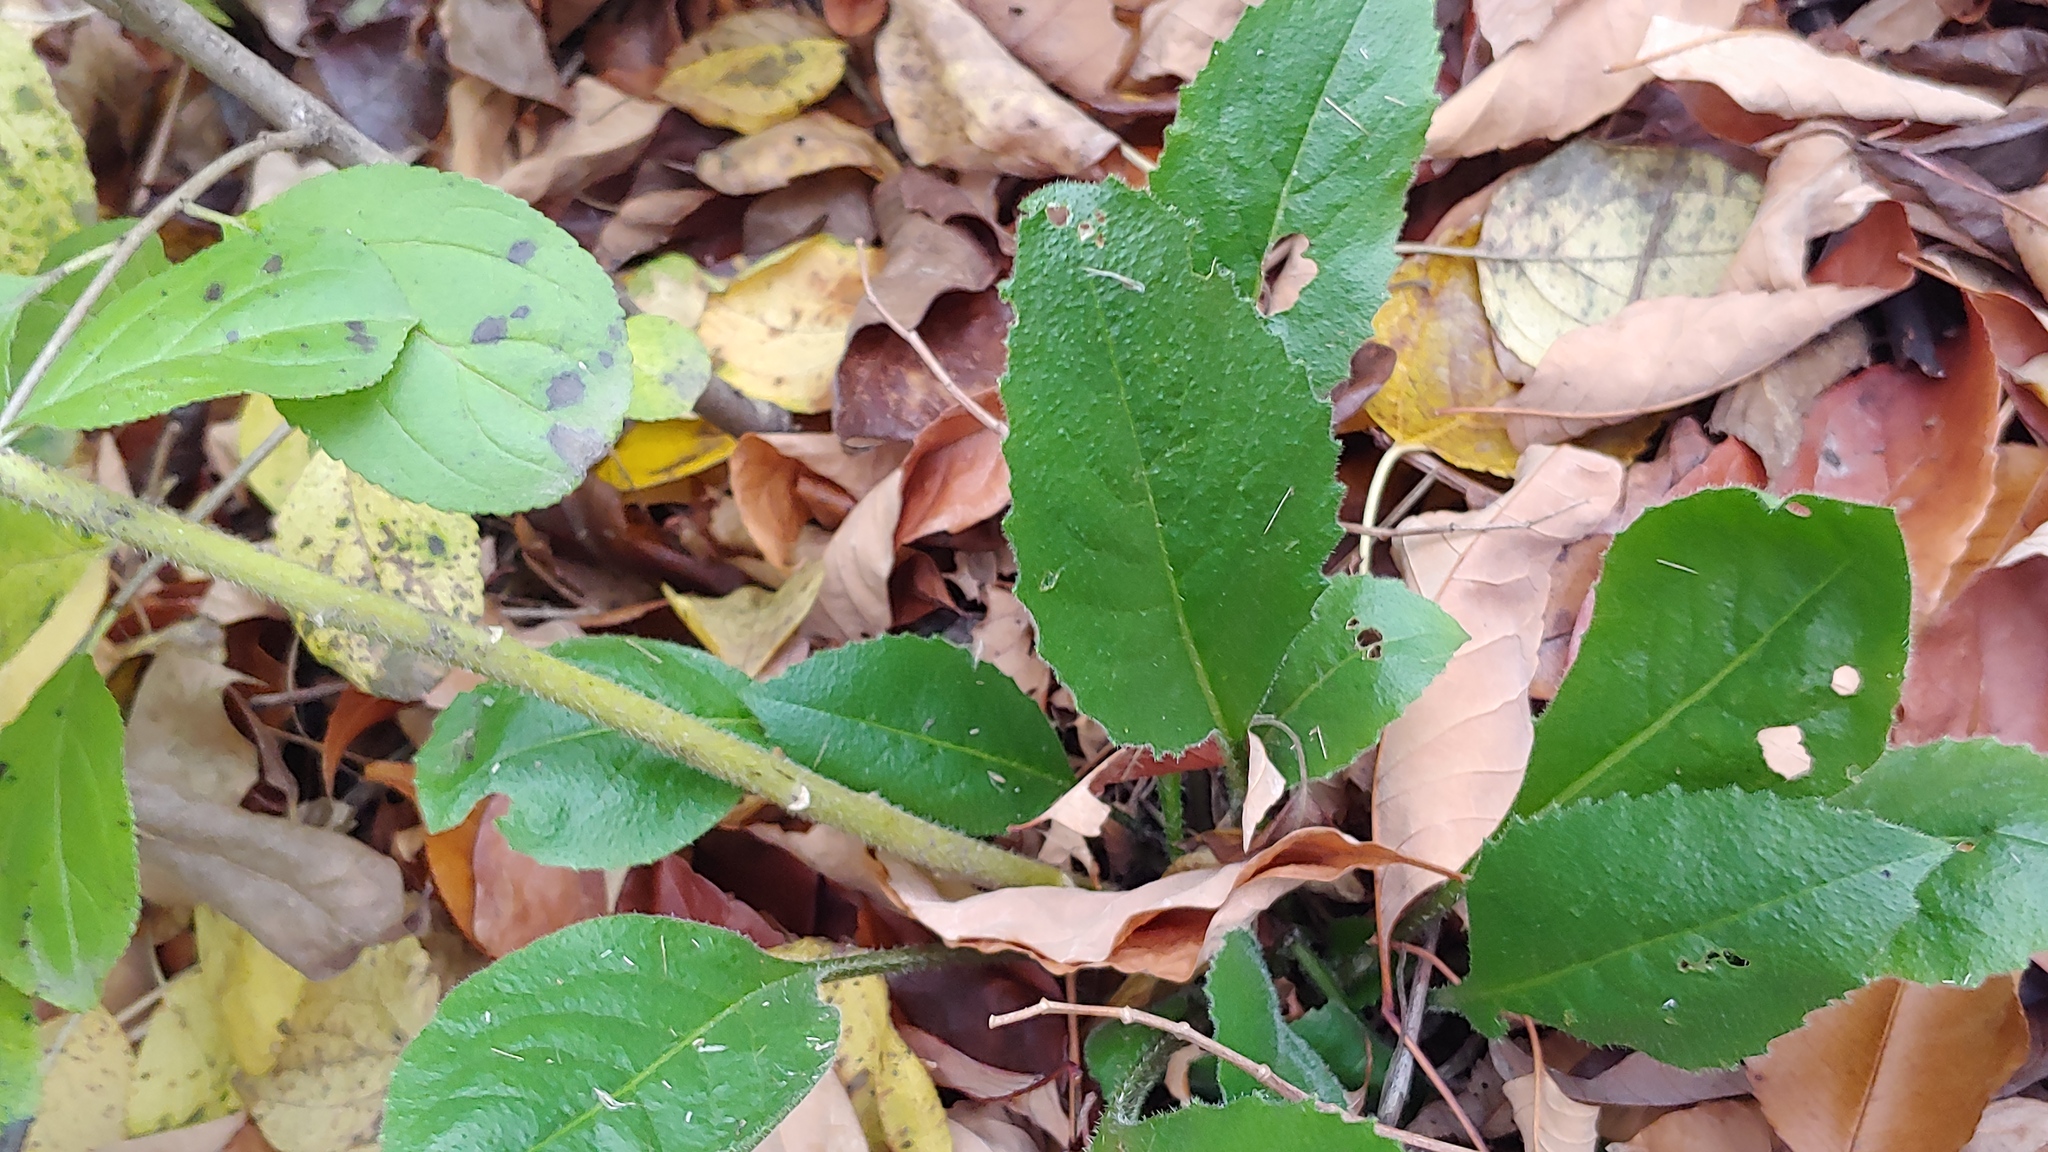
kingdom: Plantae
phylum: Tracheophyta
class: Magnoliopsida
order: Brassicales
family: Brassicaceae
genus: Hesperis
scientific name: Hesperis matronalis
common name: Dame's-violet
